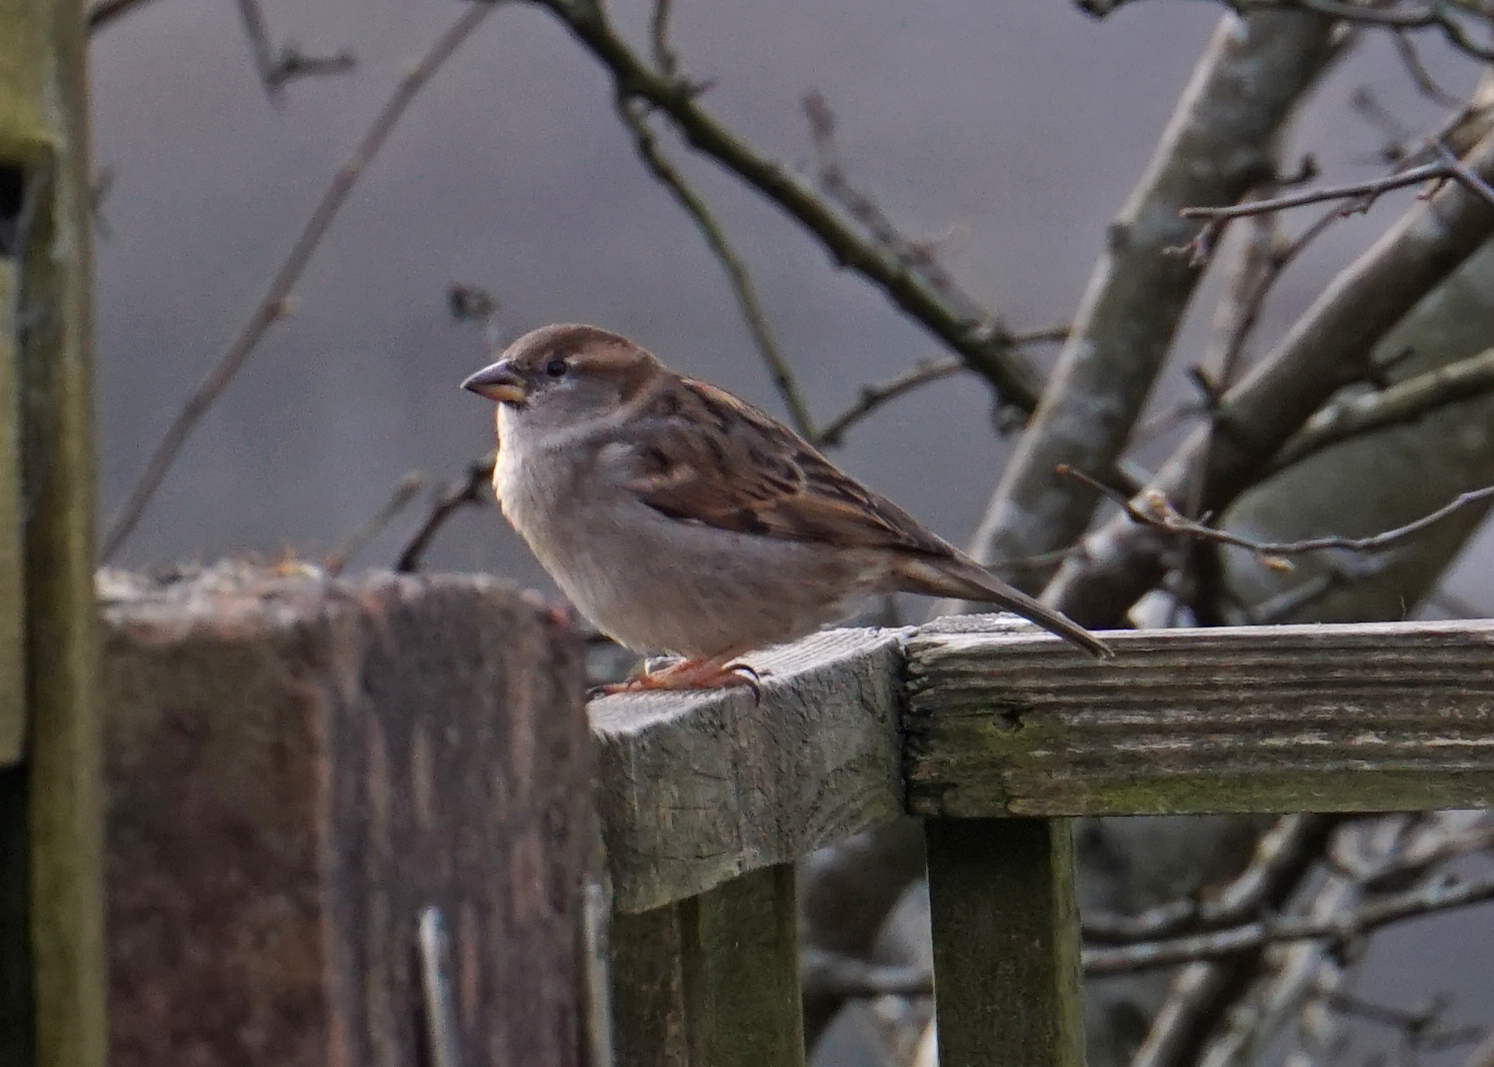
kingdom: Animalia
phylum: Chordata
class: Aves
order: Passeriformes
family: Passeridae
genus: Passer
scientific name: Passer domesticus
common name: House sparrow
